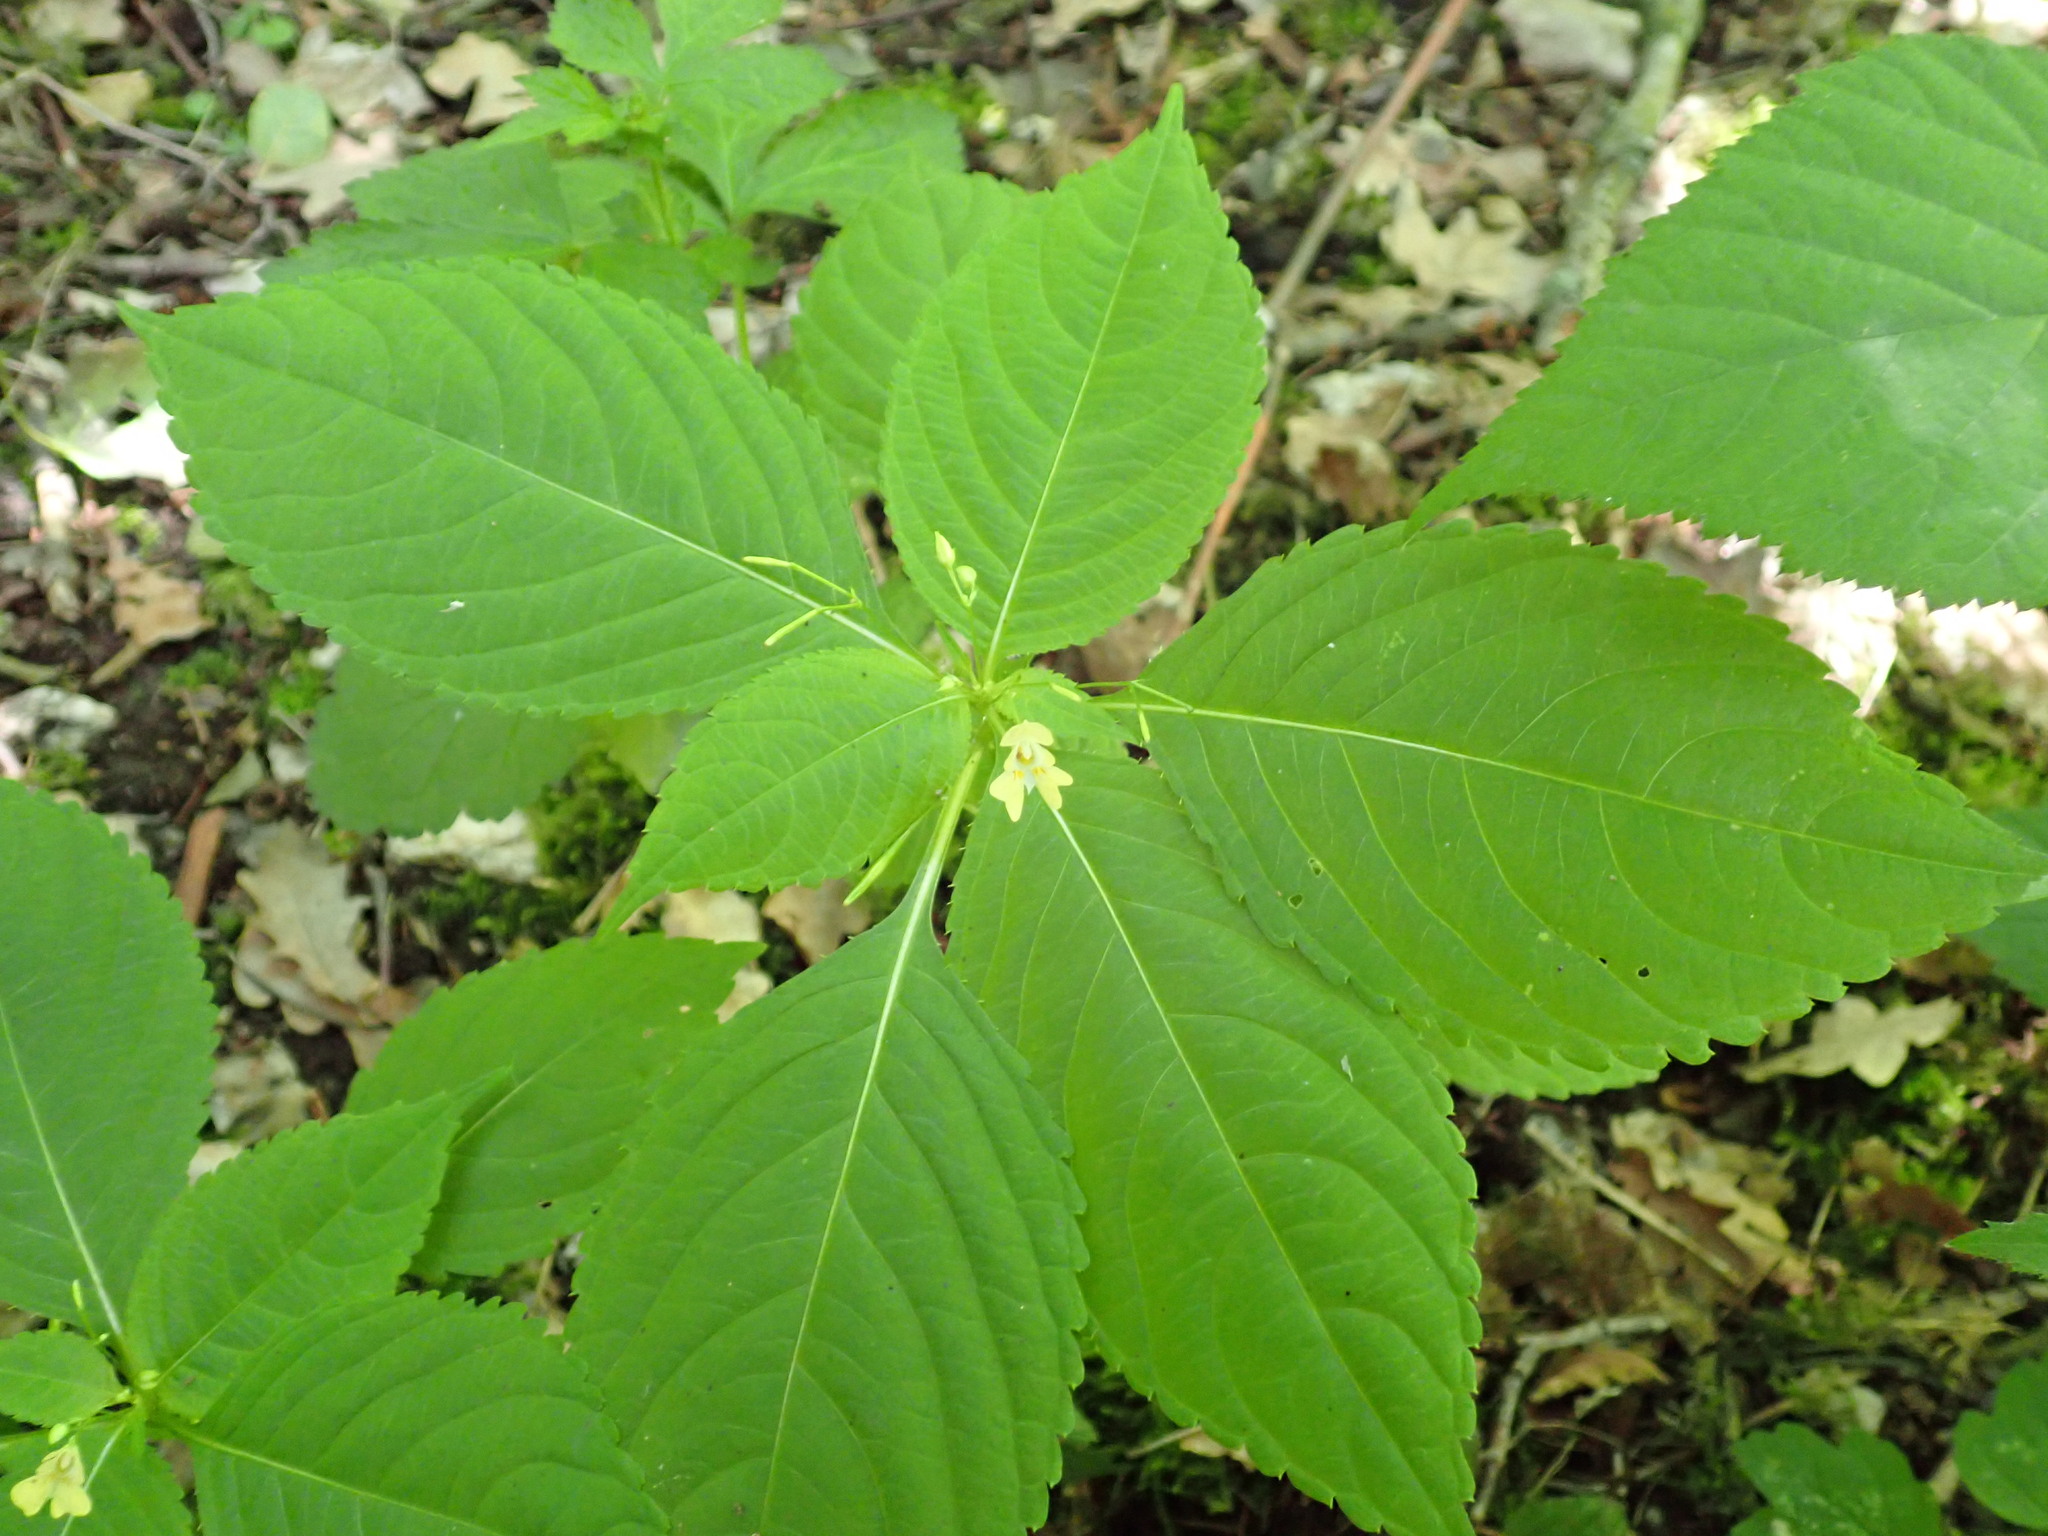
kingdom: Plantae
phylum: Tracheophyta
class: Magnoliopsida
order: Ericales
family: Balsaminaceae
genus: Impatiens
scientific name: Impatiens parviflora
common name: Small balsam
